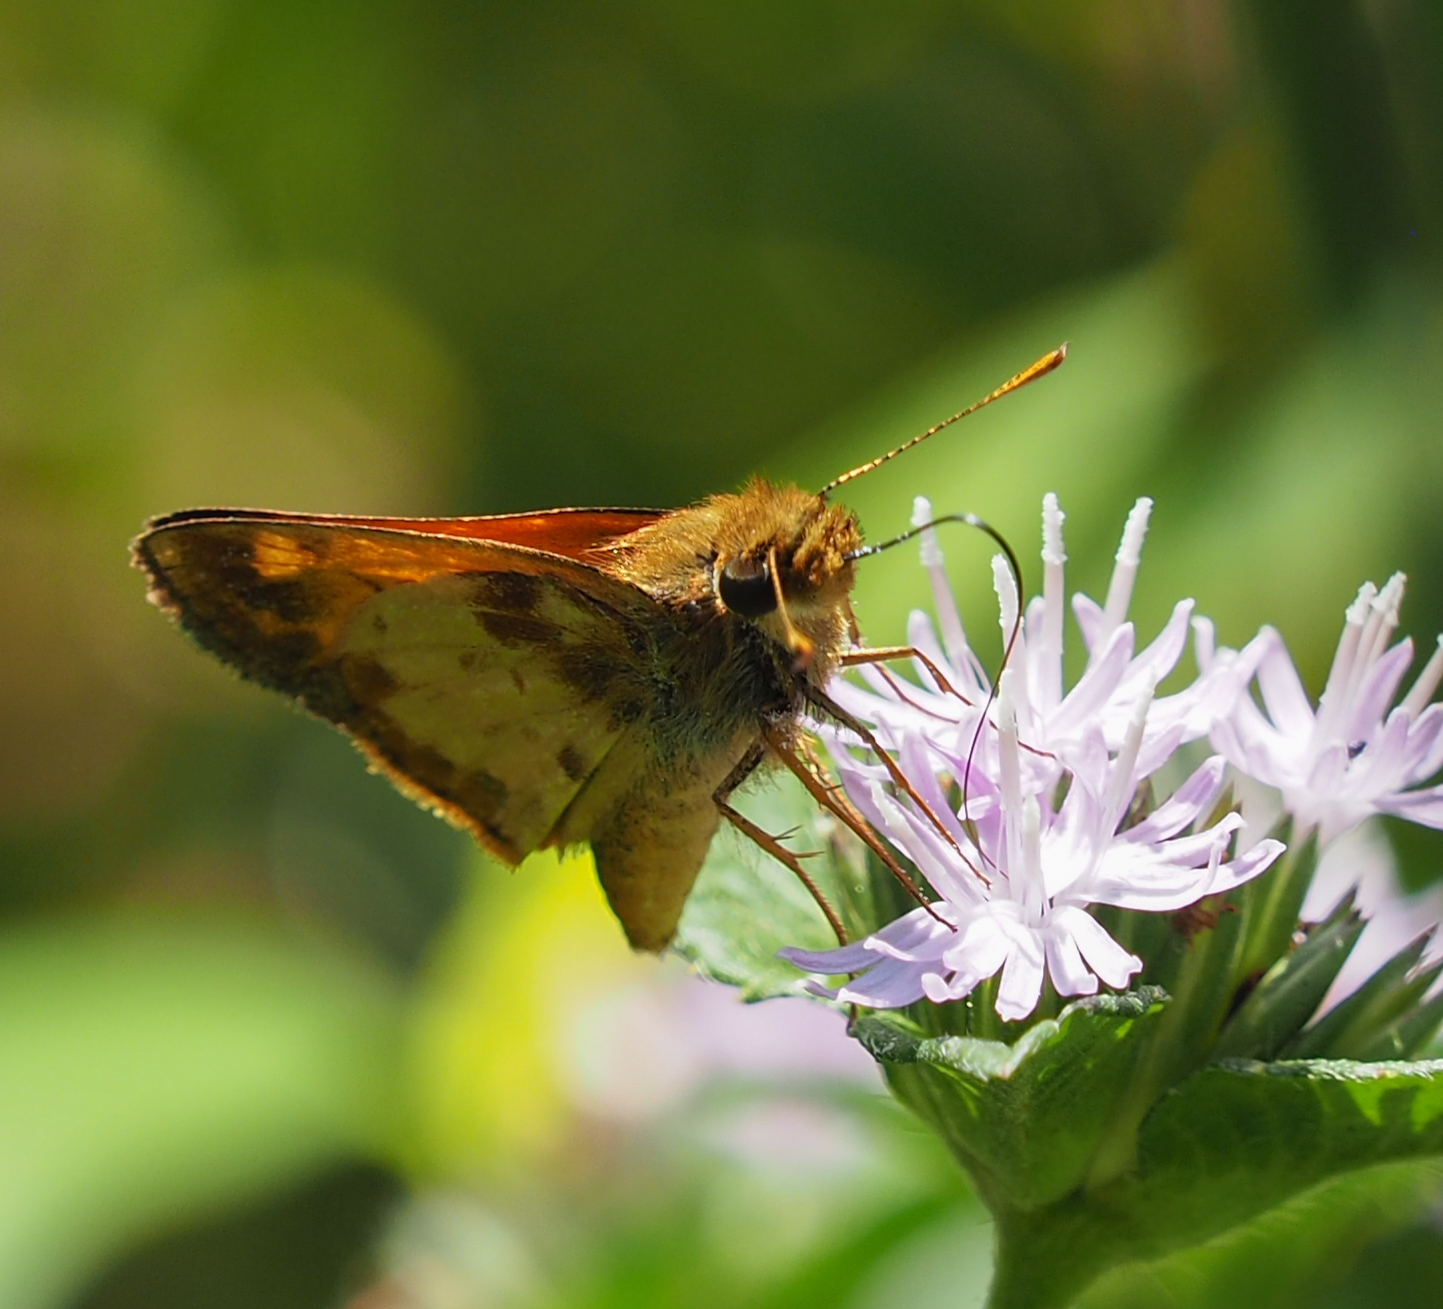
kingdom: Animalia
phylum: Arthropoda
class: Insecta
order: Lepidoptera
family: Hesperiidae
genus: Lon
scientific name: Lon zabulon
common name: Zabulon skipper
